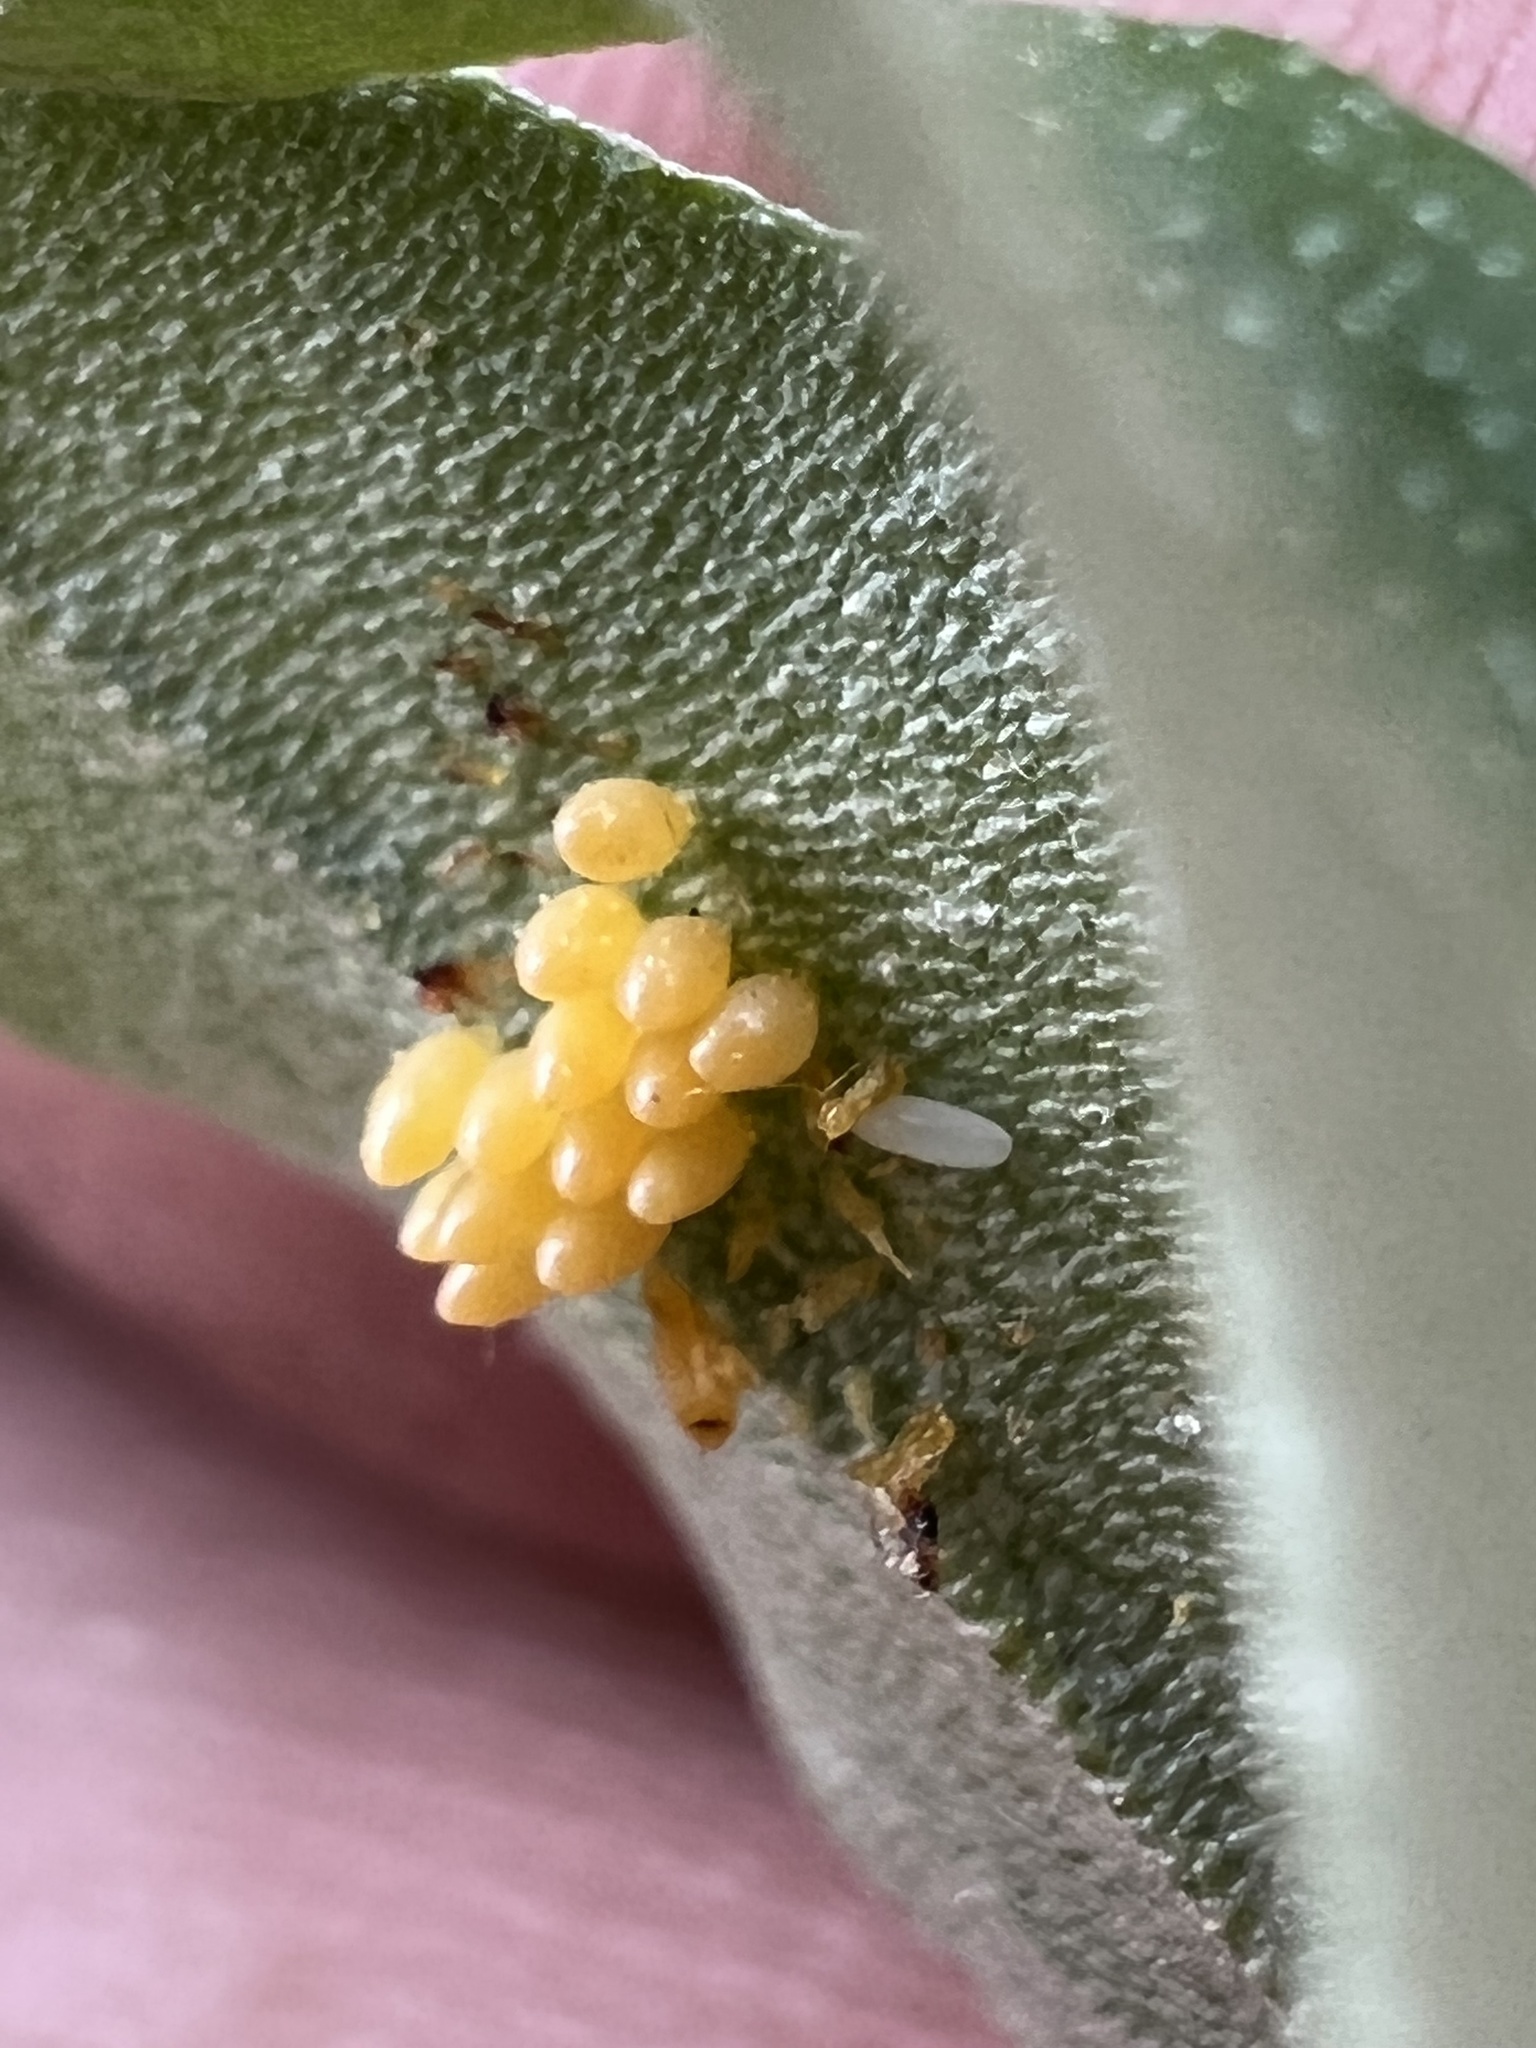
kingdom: Animalia
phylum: Arthropoda
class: Insecta
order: Coleoptera
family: Coccinellidae
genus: Harmonia
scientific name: Harmonia axyridis
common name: Harlequin ladybird
